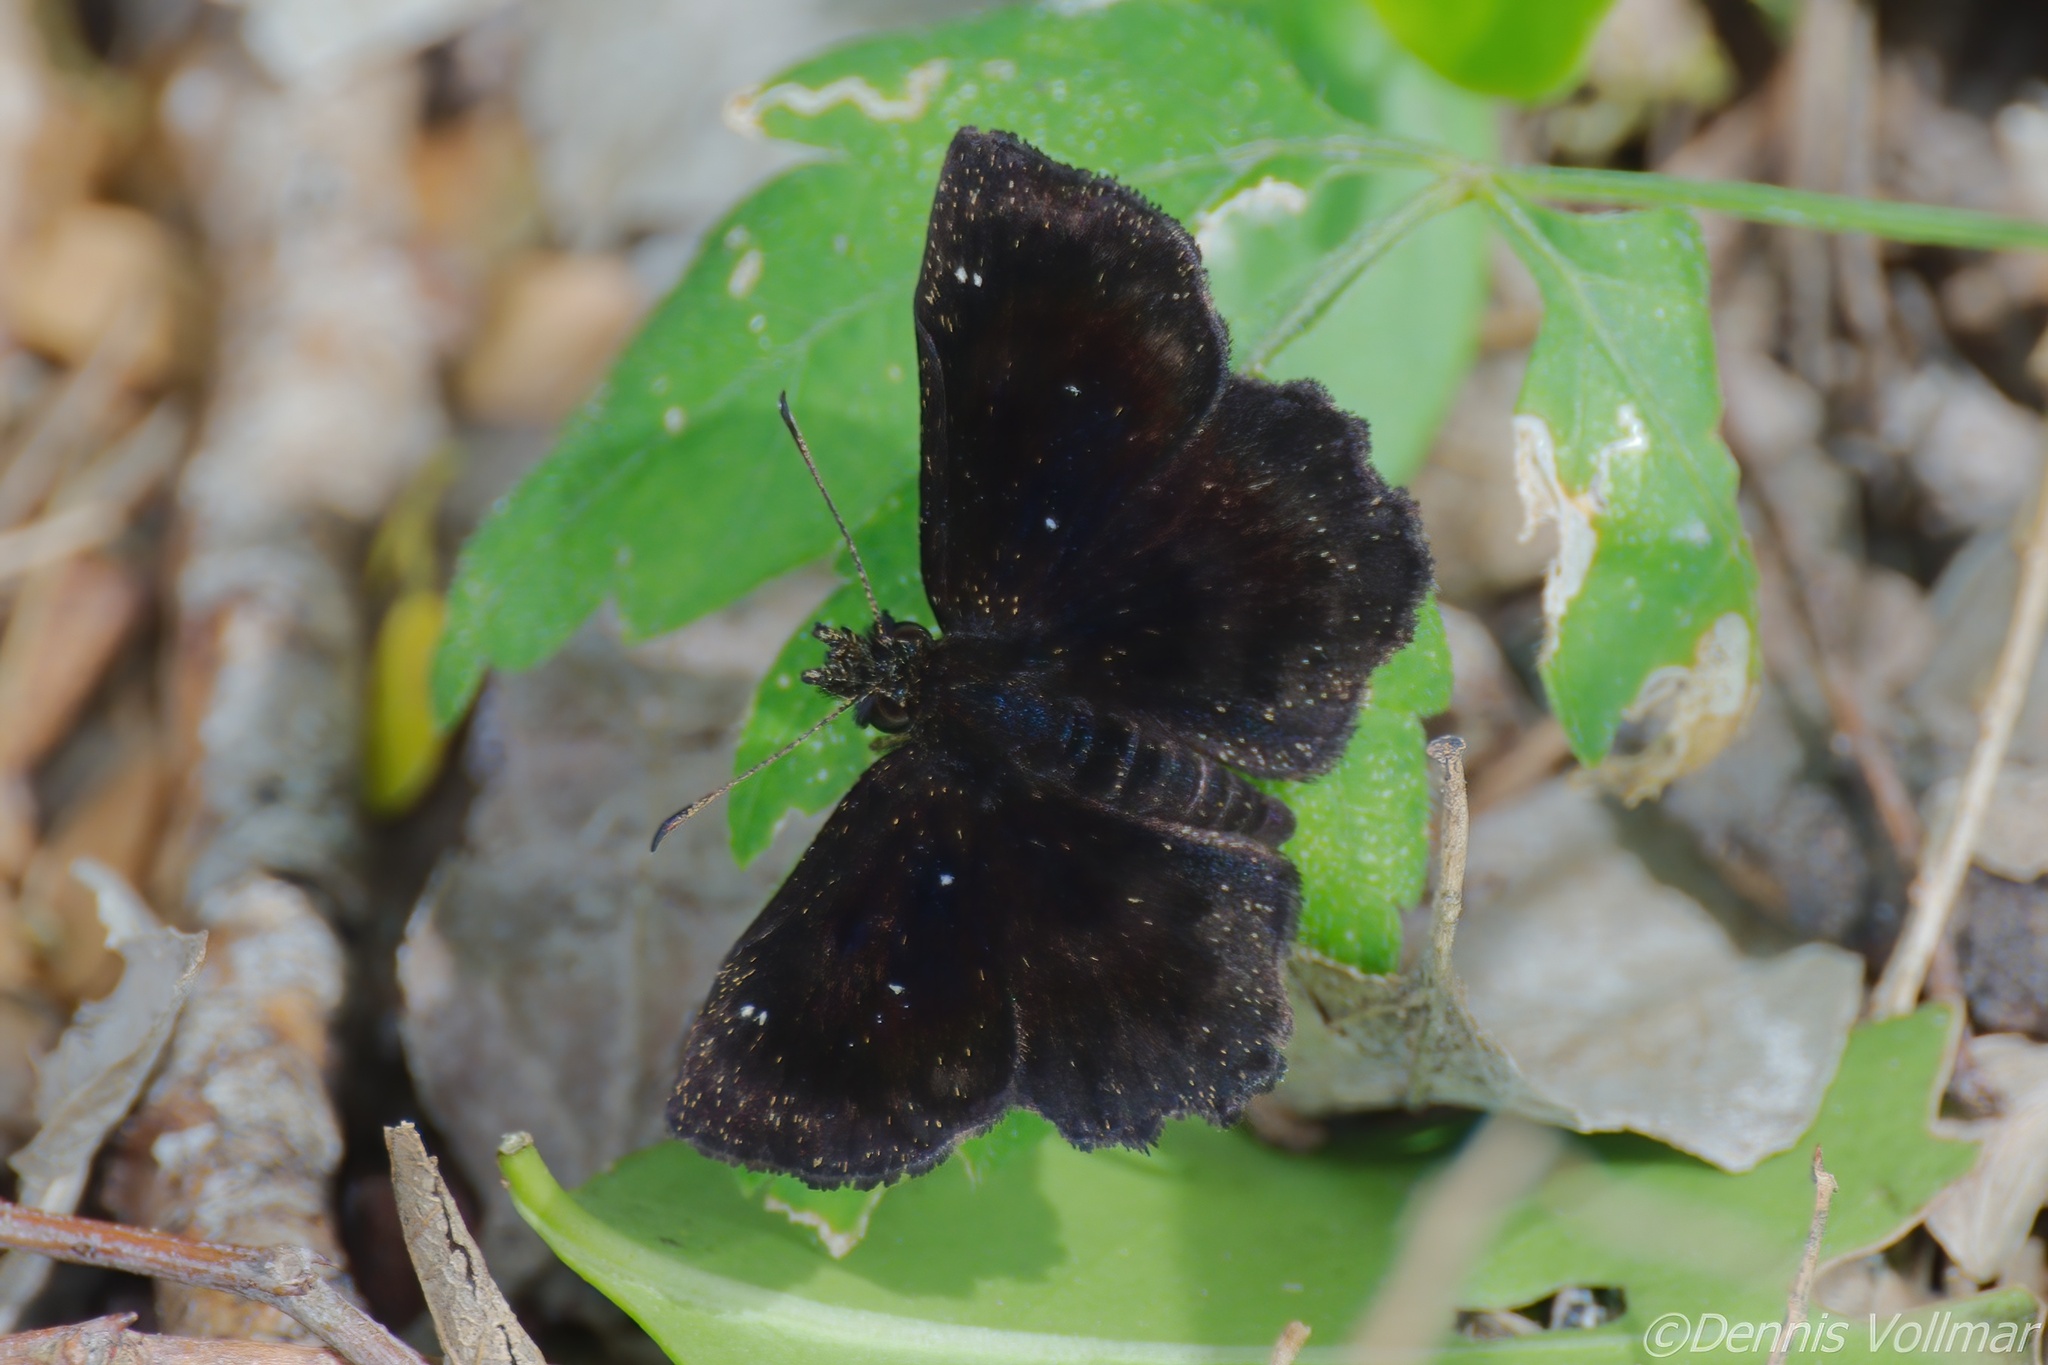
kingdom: Animalia
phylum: Arthropoda
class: Insecta
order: Lepidoptera
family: Hesperiidae
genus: Staphylus
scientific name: Staphylus mazans
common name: Mazans scallopwing
